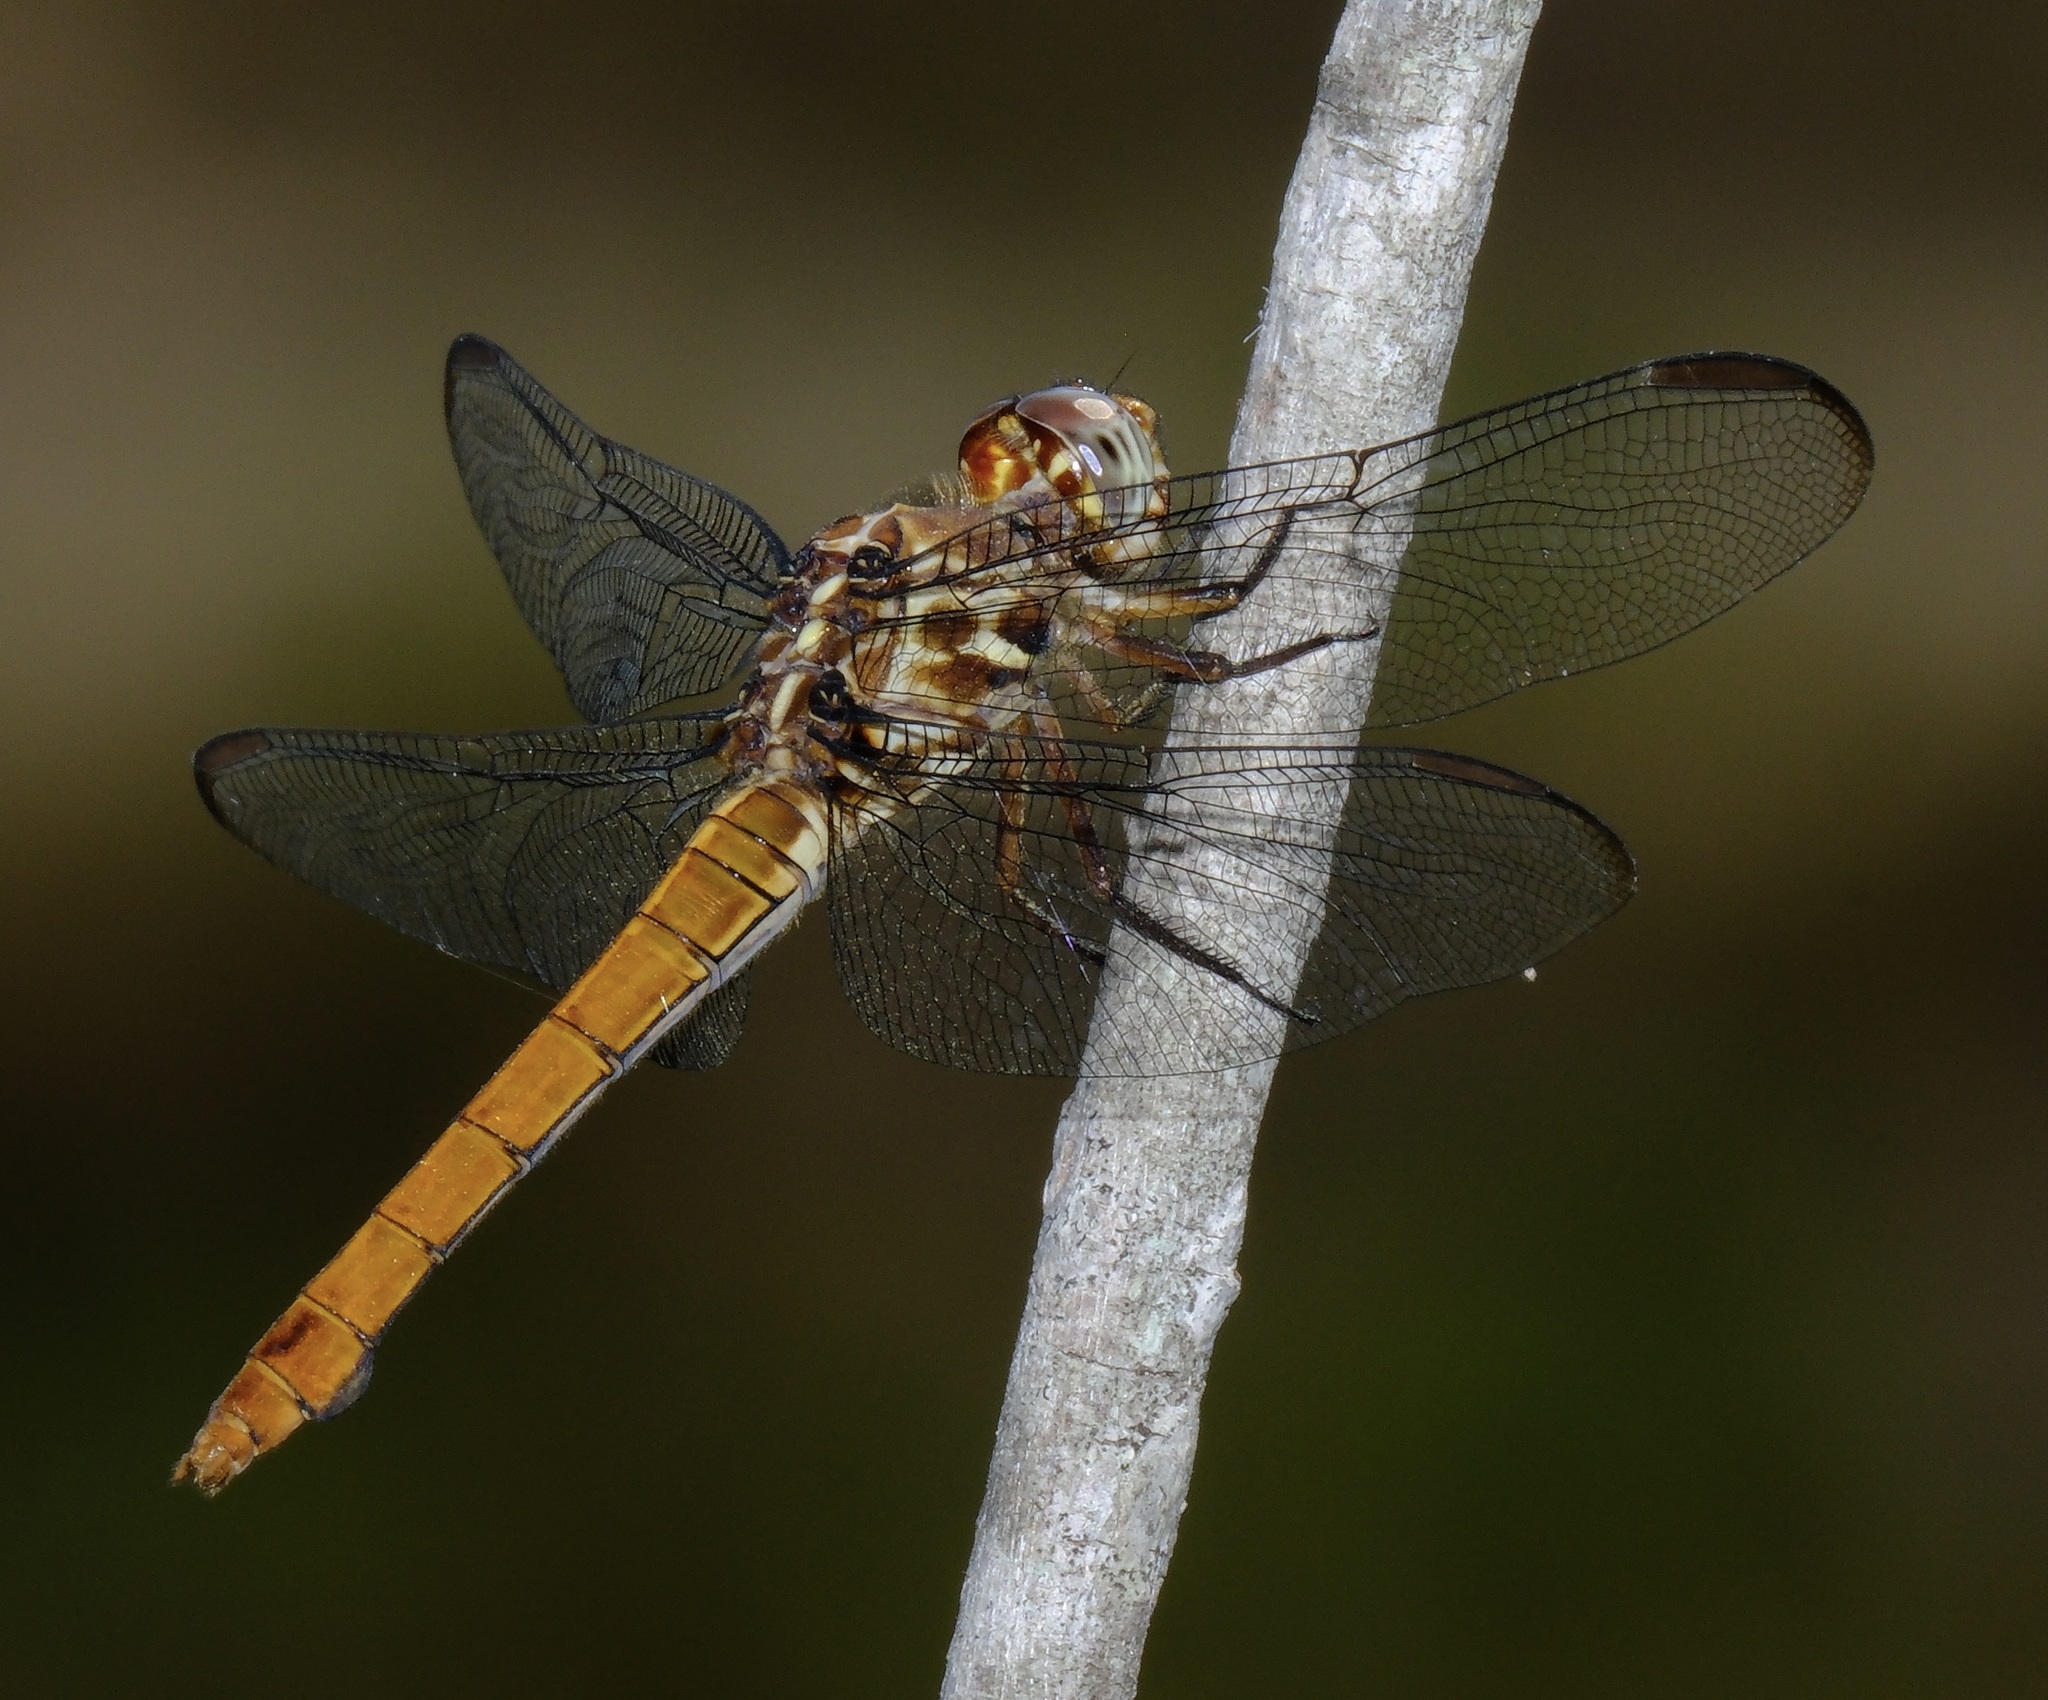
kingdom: Animalia
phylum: Arthropoda
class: Insecta
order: Odonata
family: Libellulidae
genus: Orthemis
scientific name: Orthemis ferruginea
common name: Roseate skimmer
